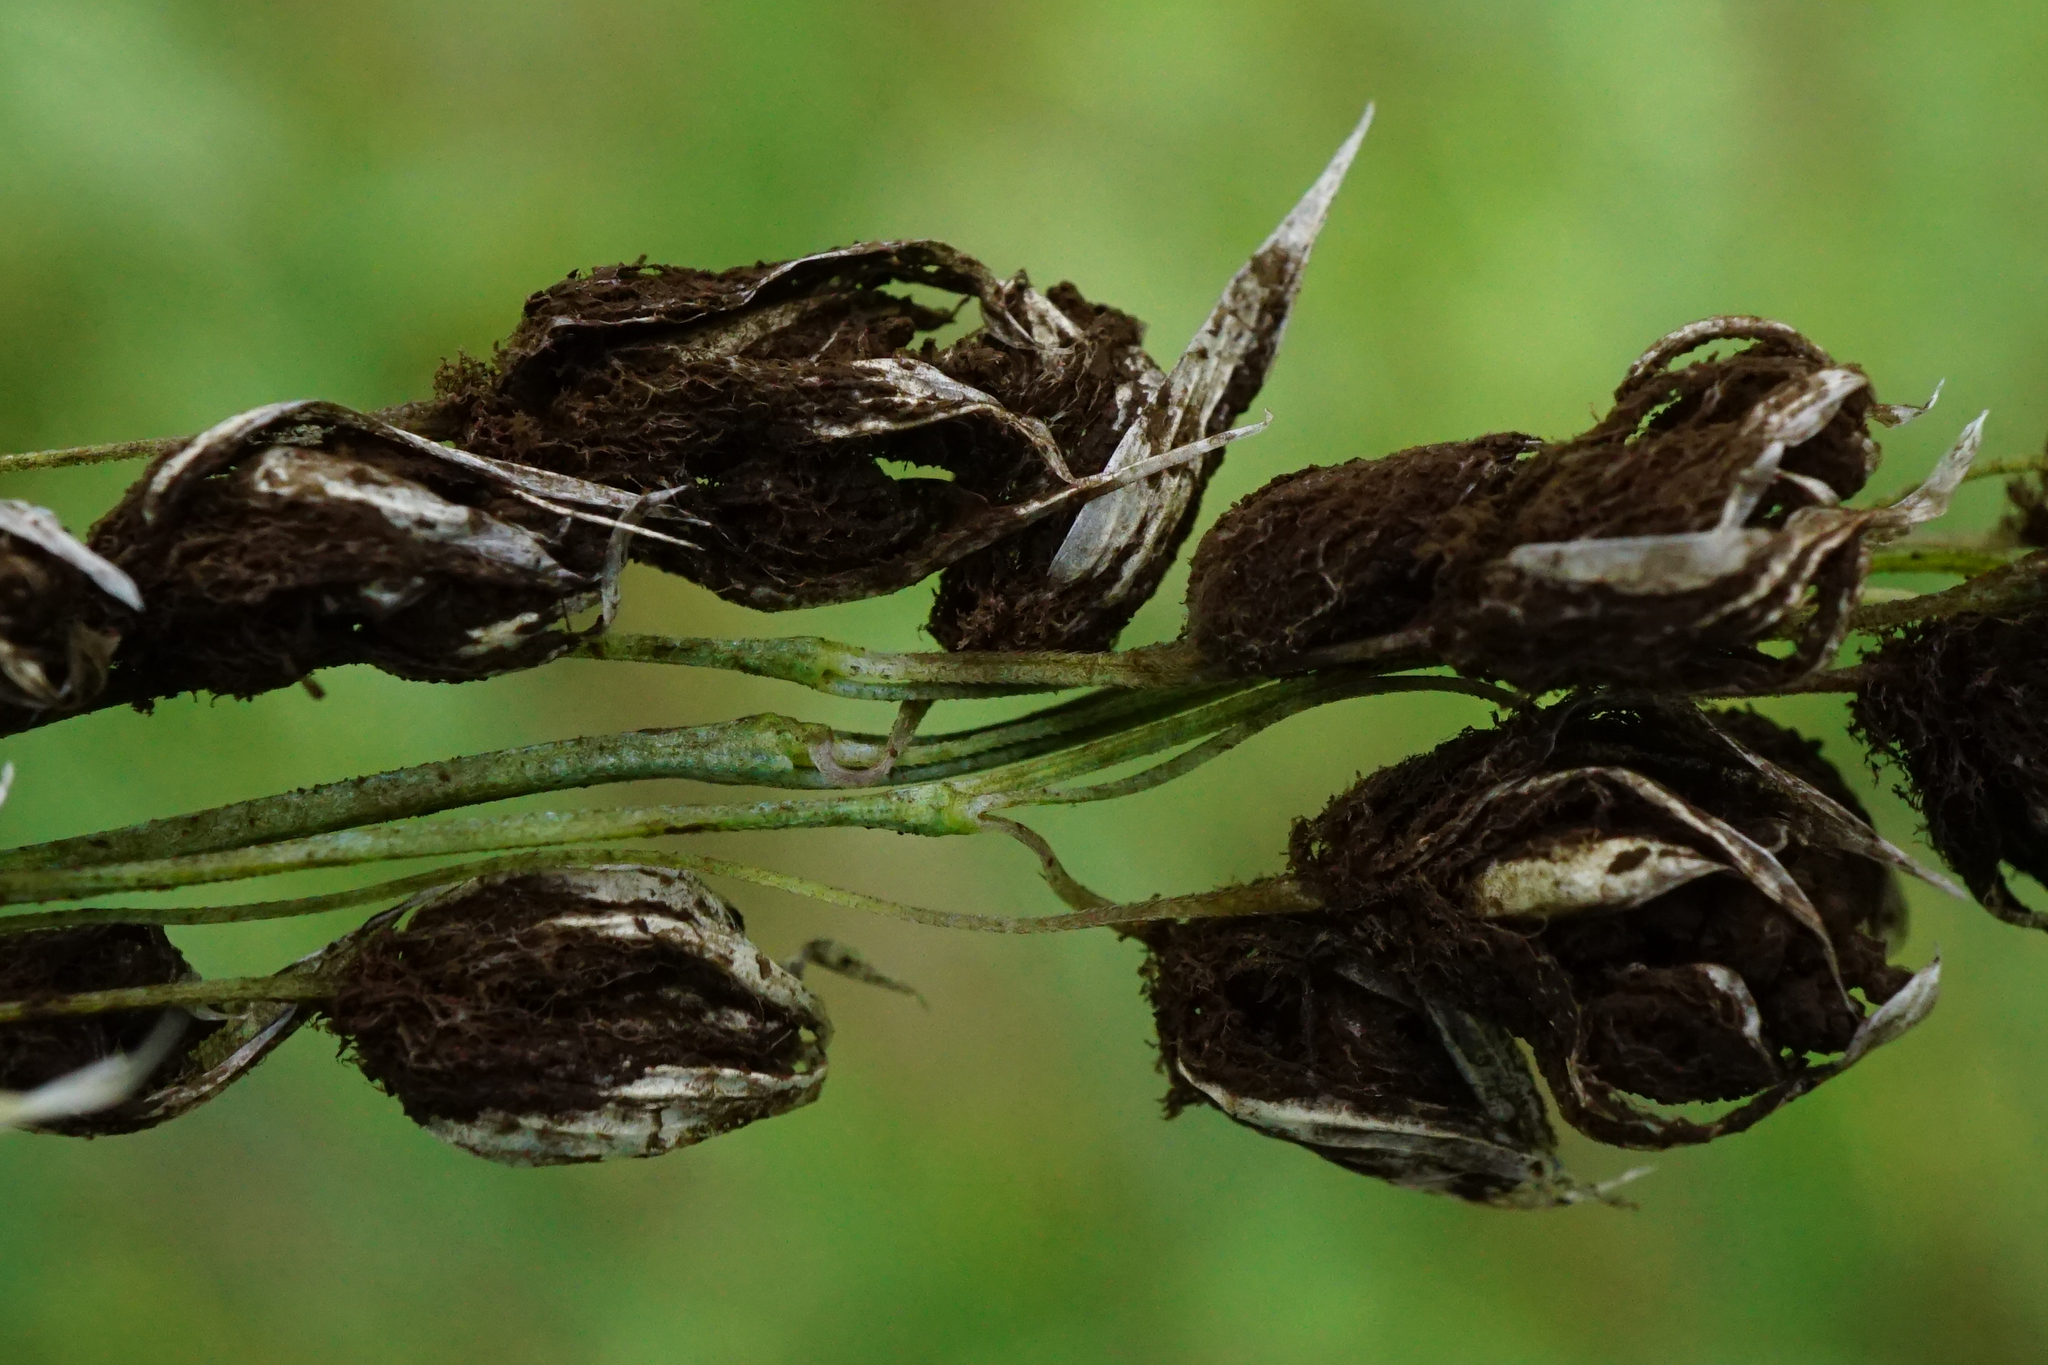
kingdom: Fungi
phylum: Basidiomycota
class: Ustilaginomycetes
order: Ustilaginales
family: Ustilaginaceae
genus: Ustilago
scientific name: Ustilago avenae
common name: Loose smut of oats & oat grass
